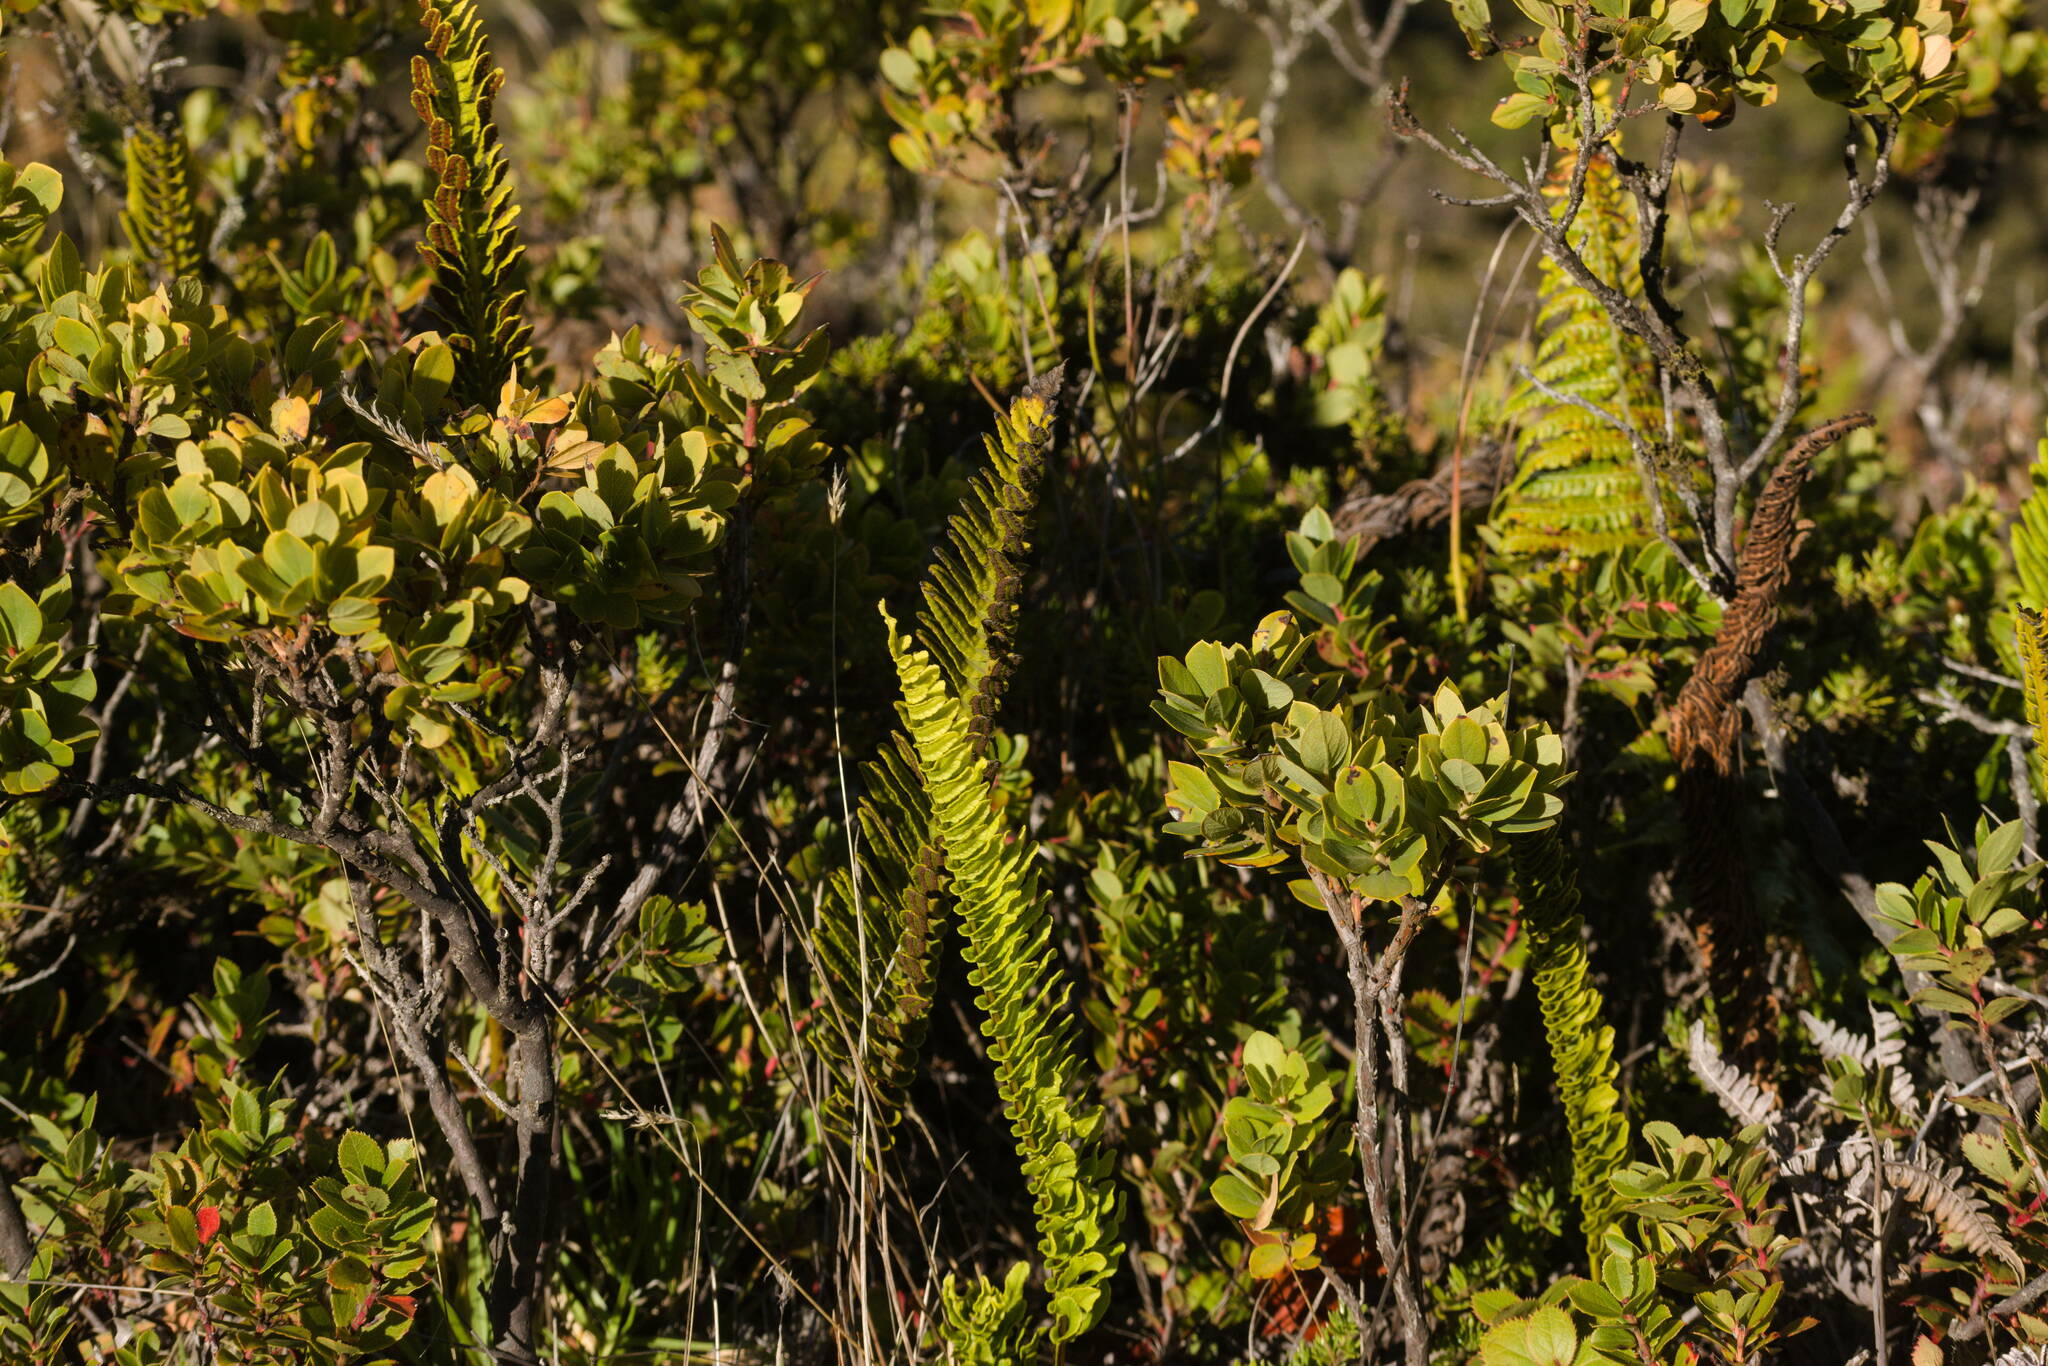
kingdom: Plantae
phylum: Tracheophyta
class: Polypodiopsida
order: Polypodiales
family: Polypodiaceae
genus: Polypodium
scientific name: Polypodium pellucidum
